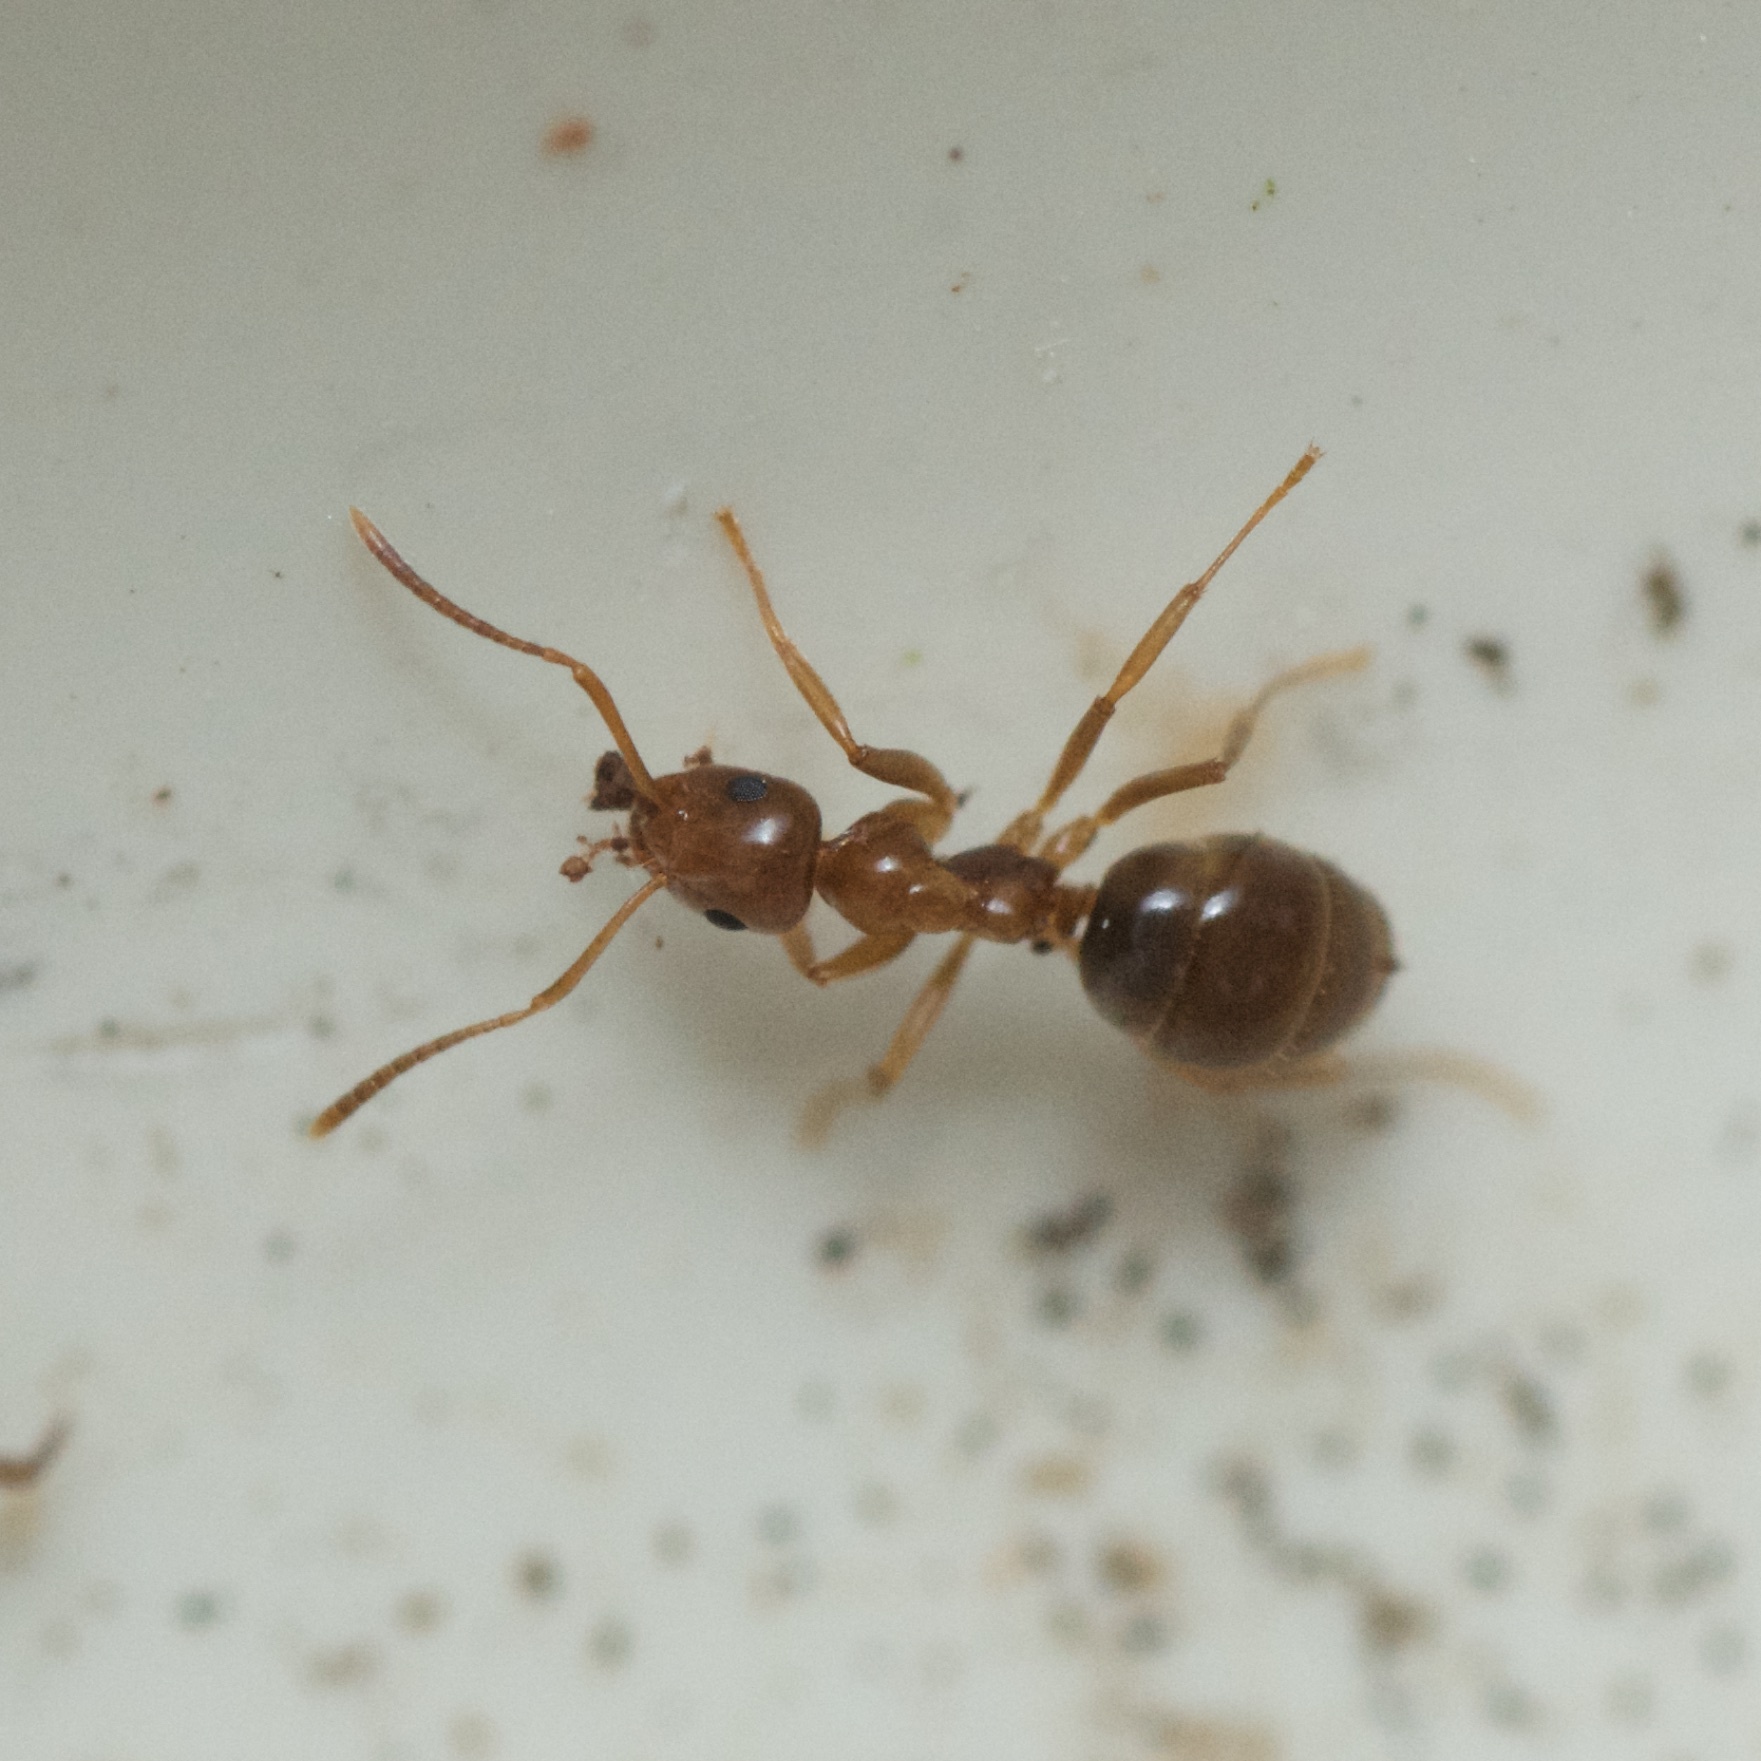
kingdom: Animalia
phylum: Arthropoda
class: Insecta
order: Hymenoptera
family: Formicidae
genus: Prolasius
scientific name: Prolasius advenus
